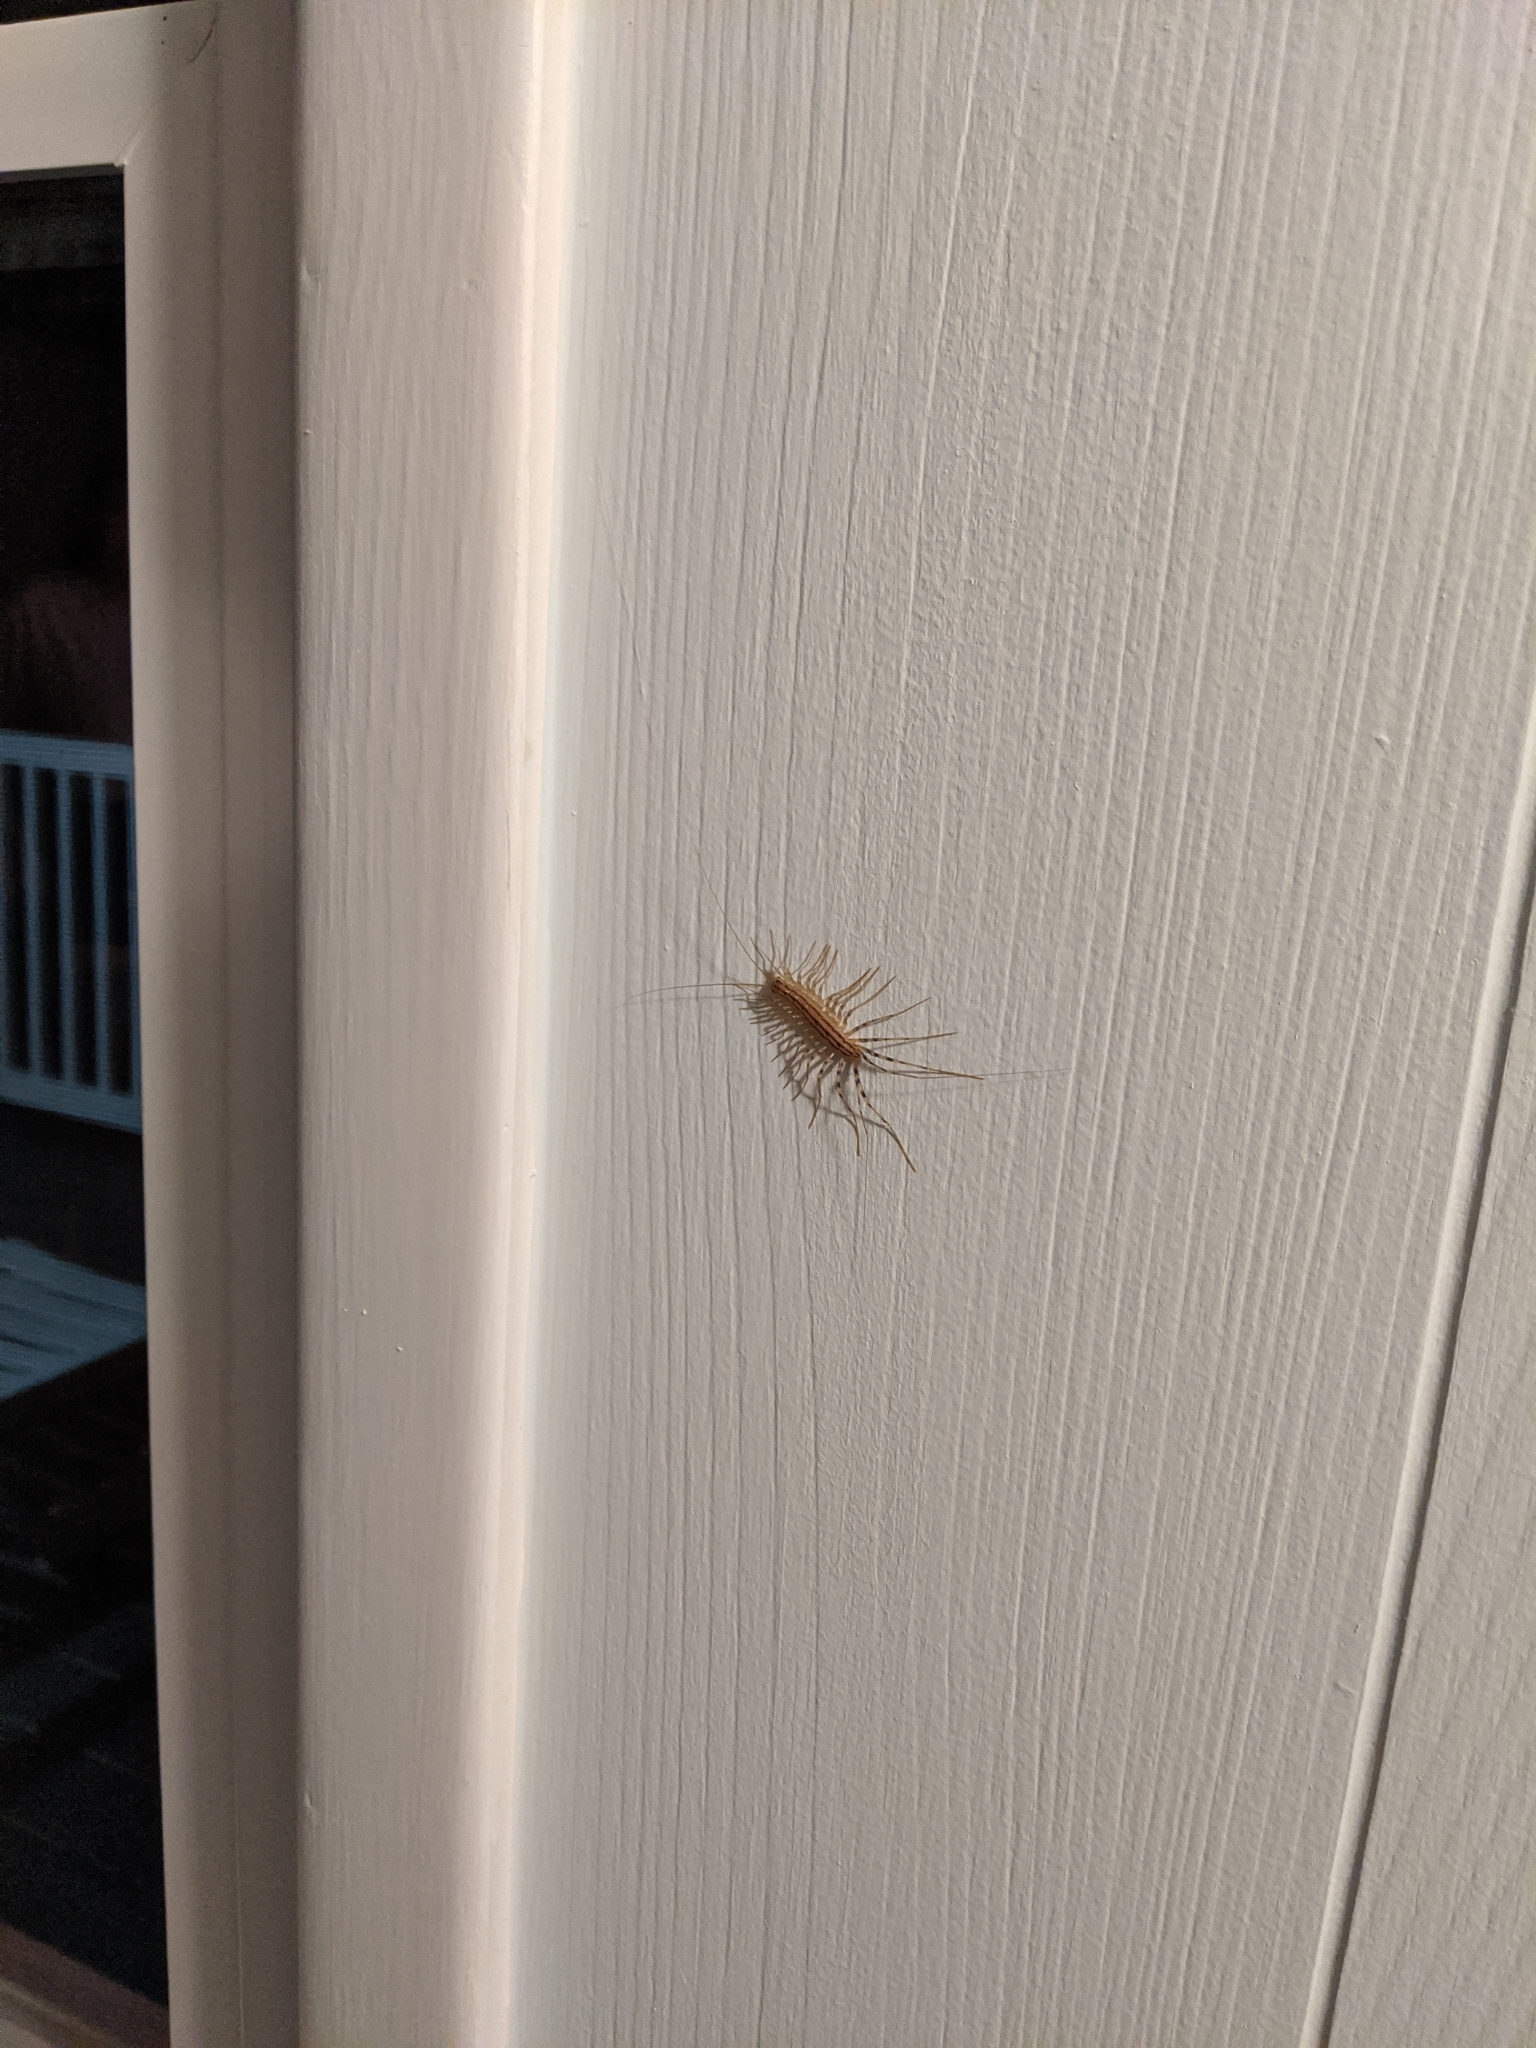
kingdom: Animalia
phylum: Arthropoda
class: Chilopoda
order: Scutigeromorpha
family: Scutigeridae
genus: Scutigera
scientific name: Scutigera coleoptrata
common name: House centipede
